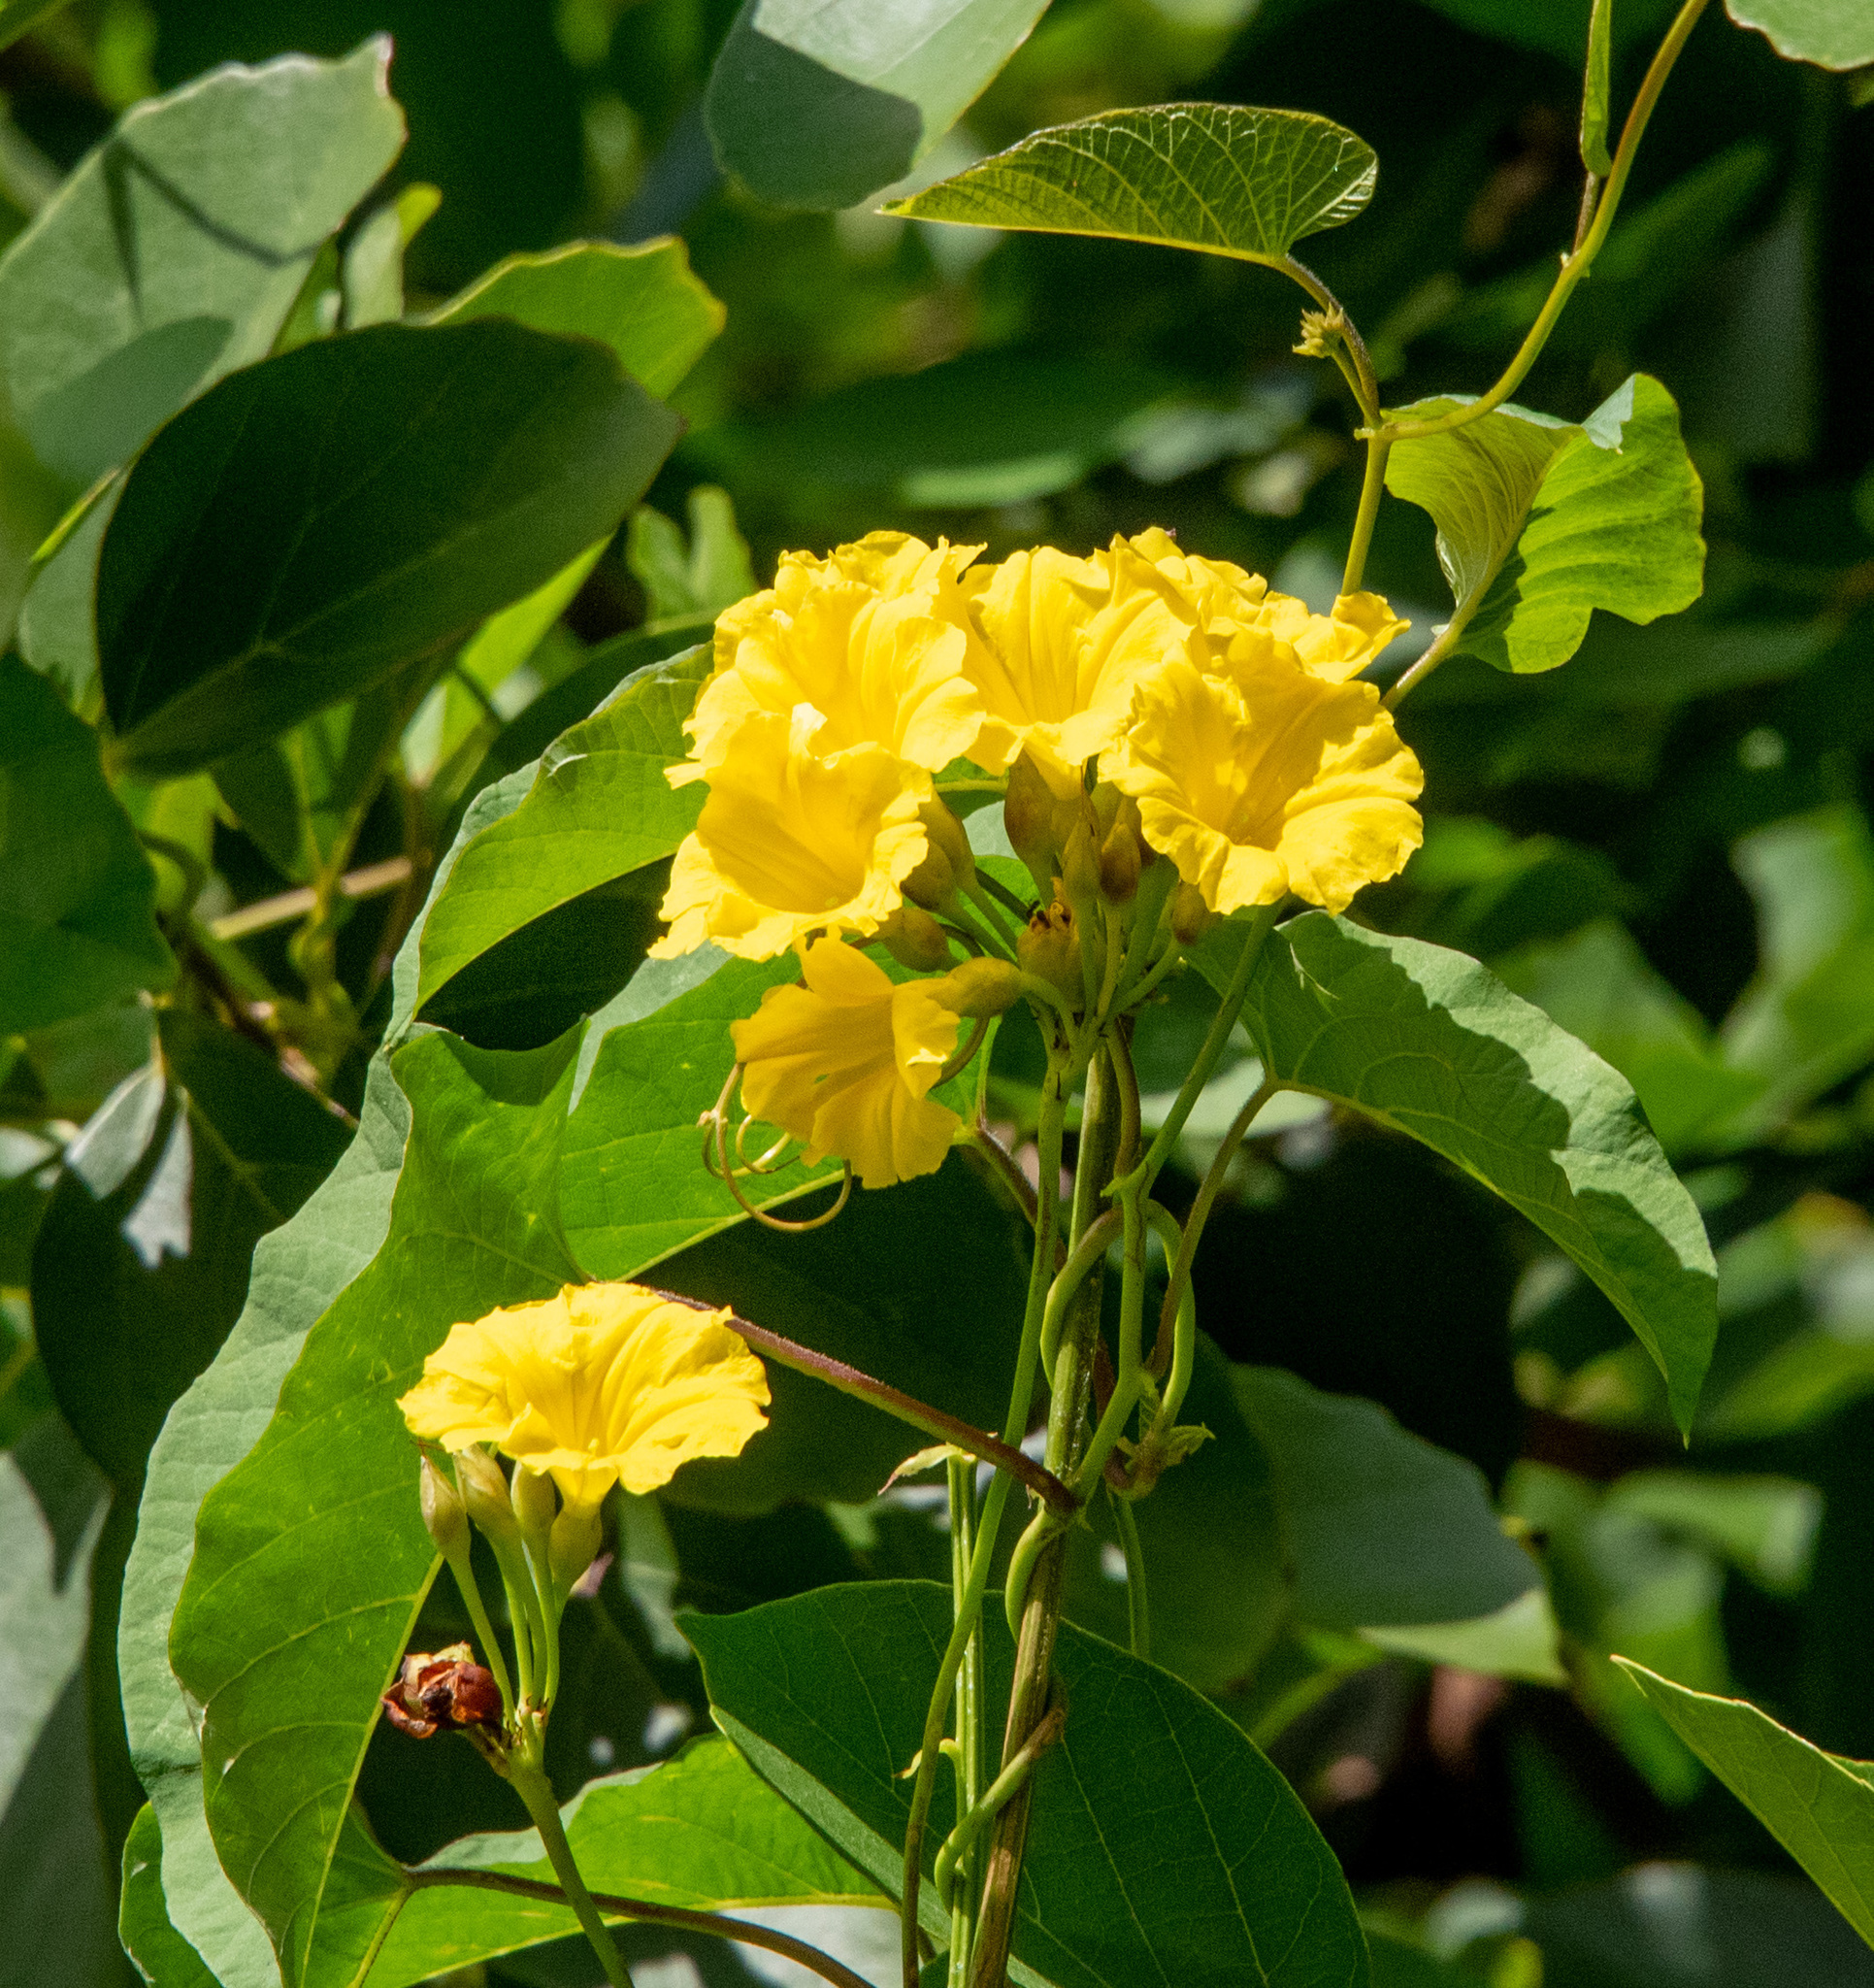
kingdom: Plantae
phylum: Tracheophyta
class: Magnoliopsida
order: Solanales
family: Convolvulaceae
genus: Camonea
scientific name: Camonea umbellata
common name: Hogvine
